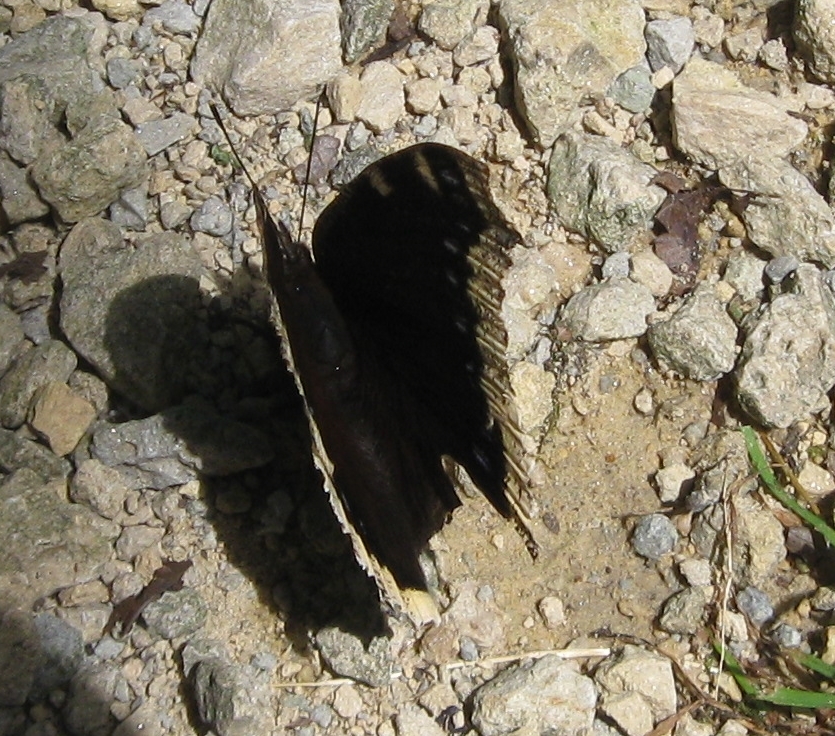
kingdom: Animalia
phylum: Arthropoda
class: Insecta
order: Lepidoptera
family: Nymphalidae
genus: Nymphalis
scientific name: Nymphalis antiopa
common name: Camberwell beauty
